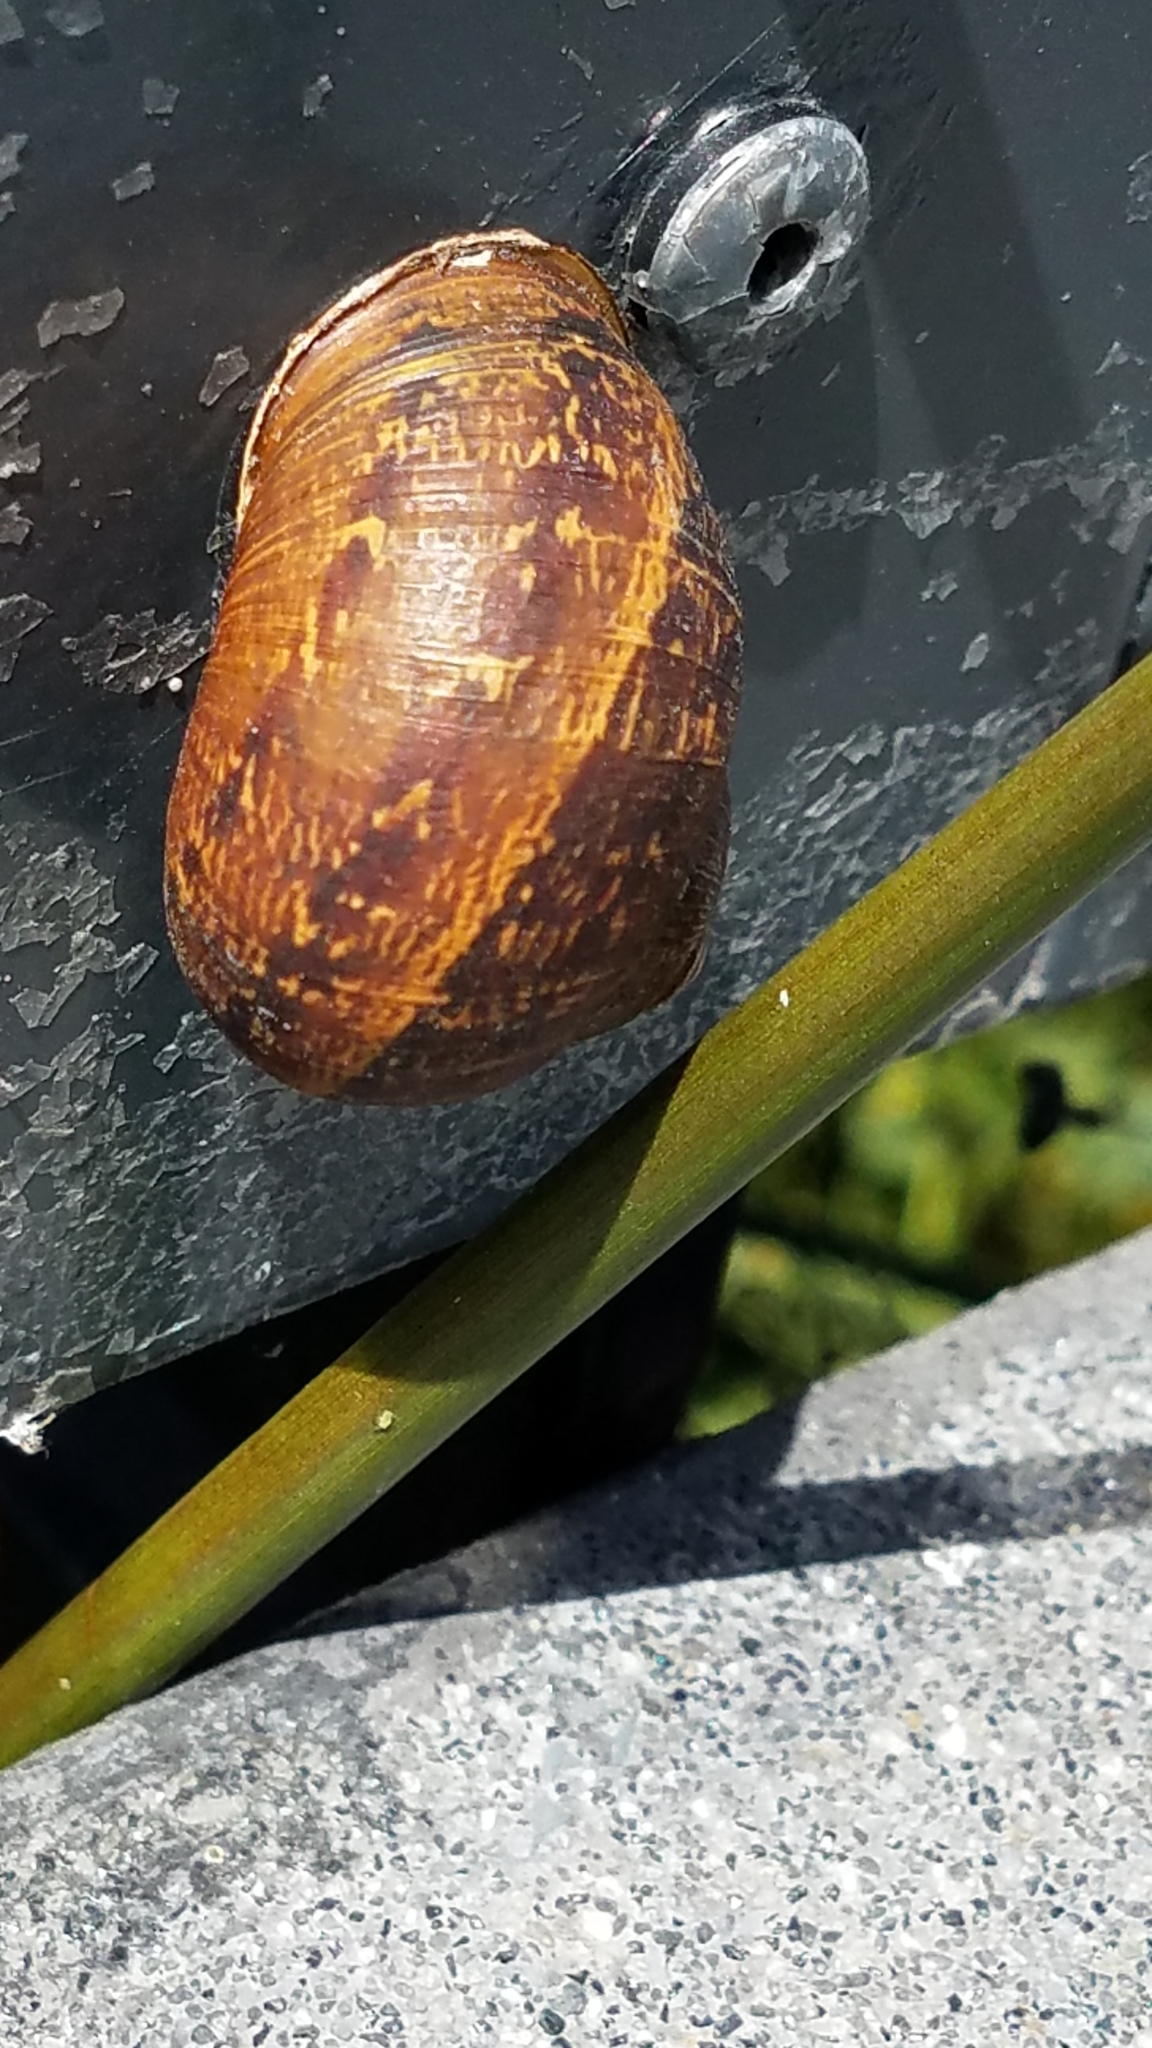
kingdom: Animalia
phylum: Mollusca
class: Gastropoda
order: Stylommatophora
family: Helicidae
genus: Cornu
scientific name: Cornu aspersum
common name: Brown garden snail
